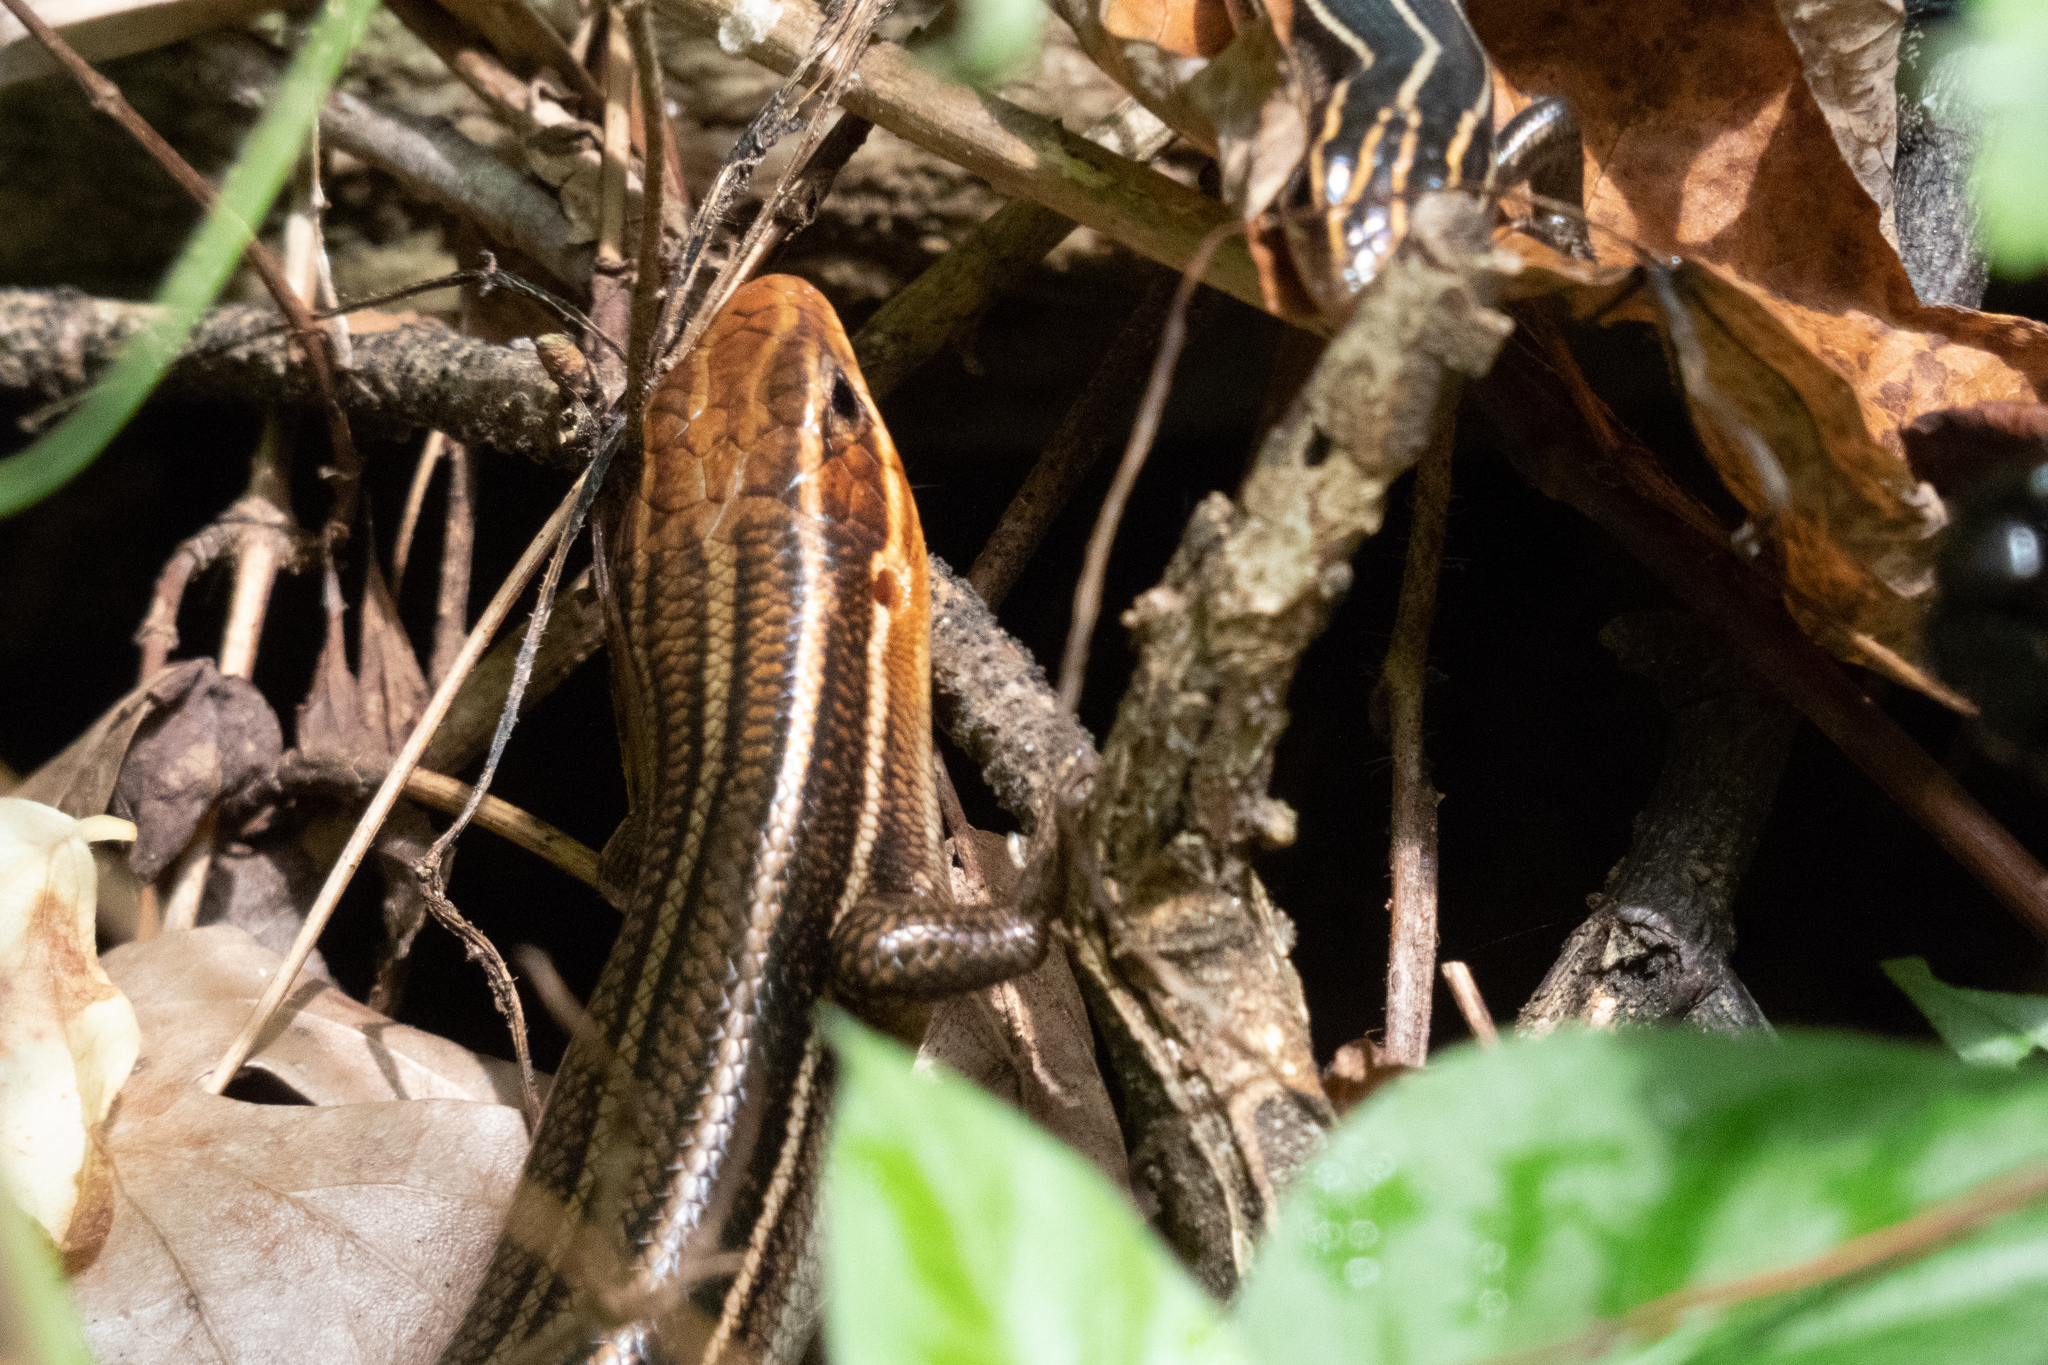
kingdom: Animalia
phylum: Chordata
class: Squamata
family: Scincidae
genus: Plestiodon
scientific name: Plestiodon laticeps
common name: Broadhead skink
